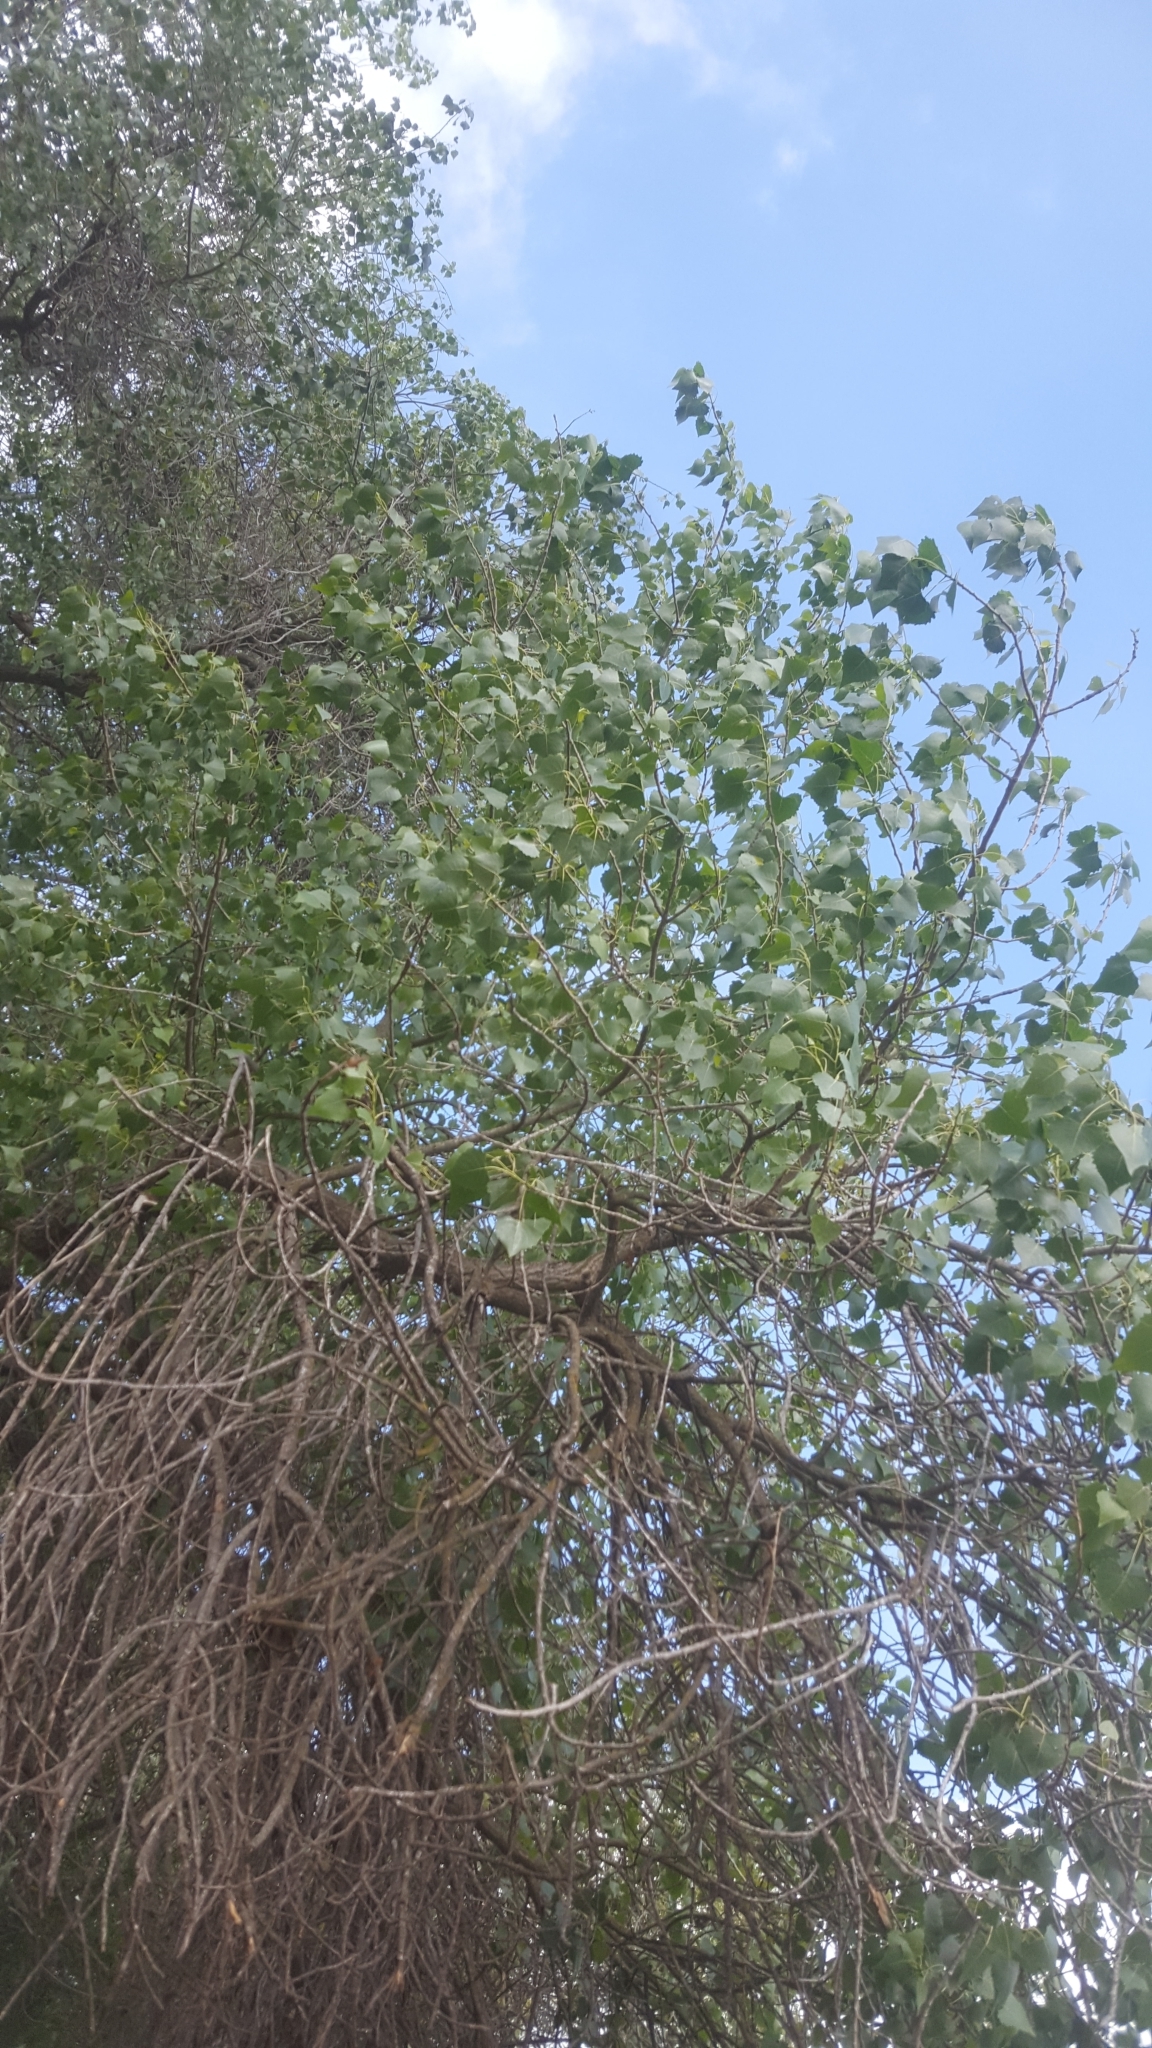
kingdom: Plantae
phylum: Tracheophyta
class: Magnoliopsida
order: Malpighiales
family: Salicaceae
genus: Populus
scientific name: Populus fremontii
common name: Fremont's cottonwood
